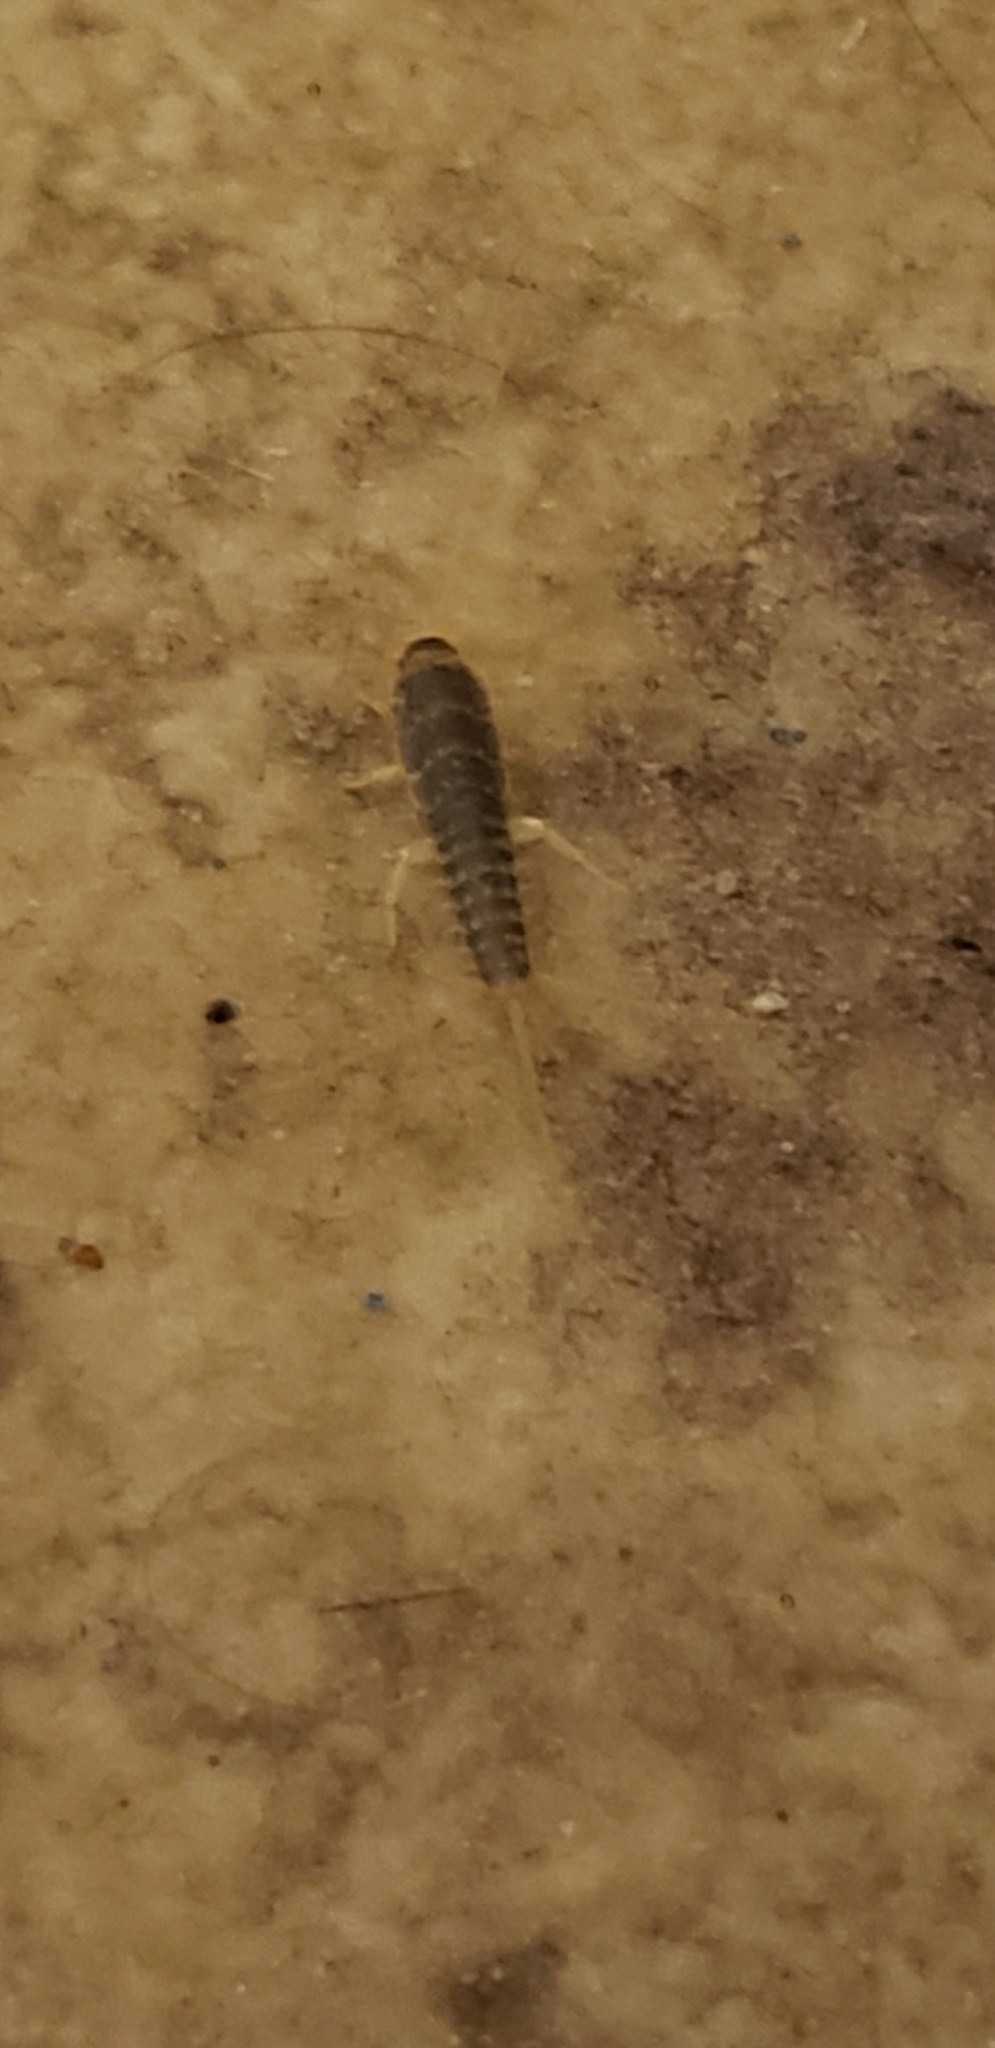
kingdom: Animalia
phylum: Arthropoda
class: Insecta
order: Zygentoma
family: Lepismatidae
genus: Ctenolepisma
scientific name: Ctenolepisma longicaudatum
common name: Silverfish
